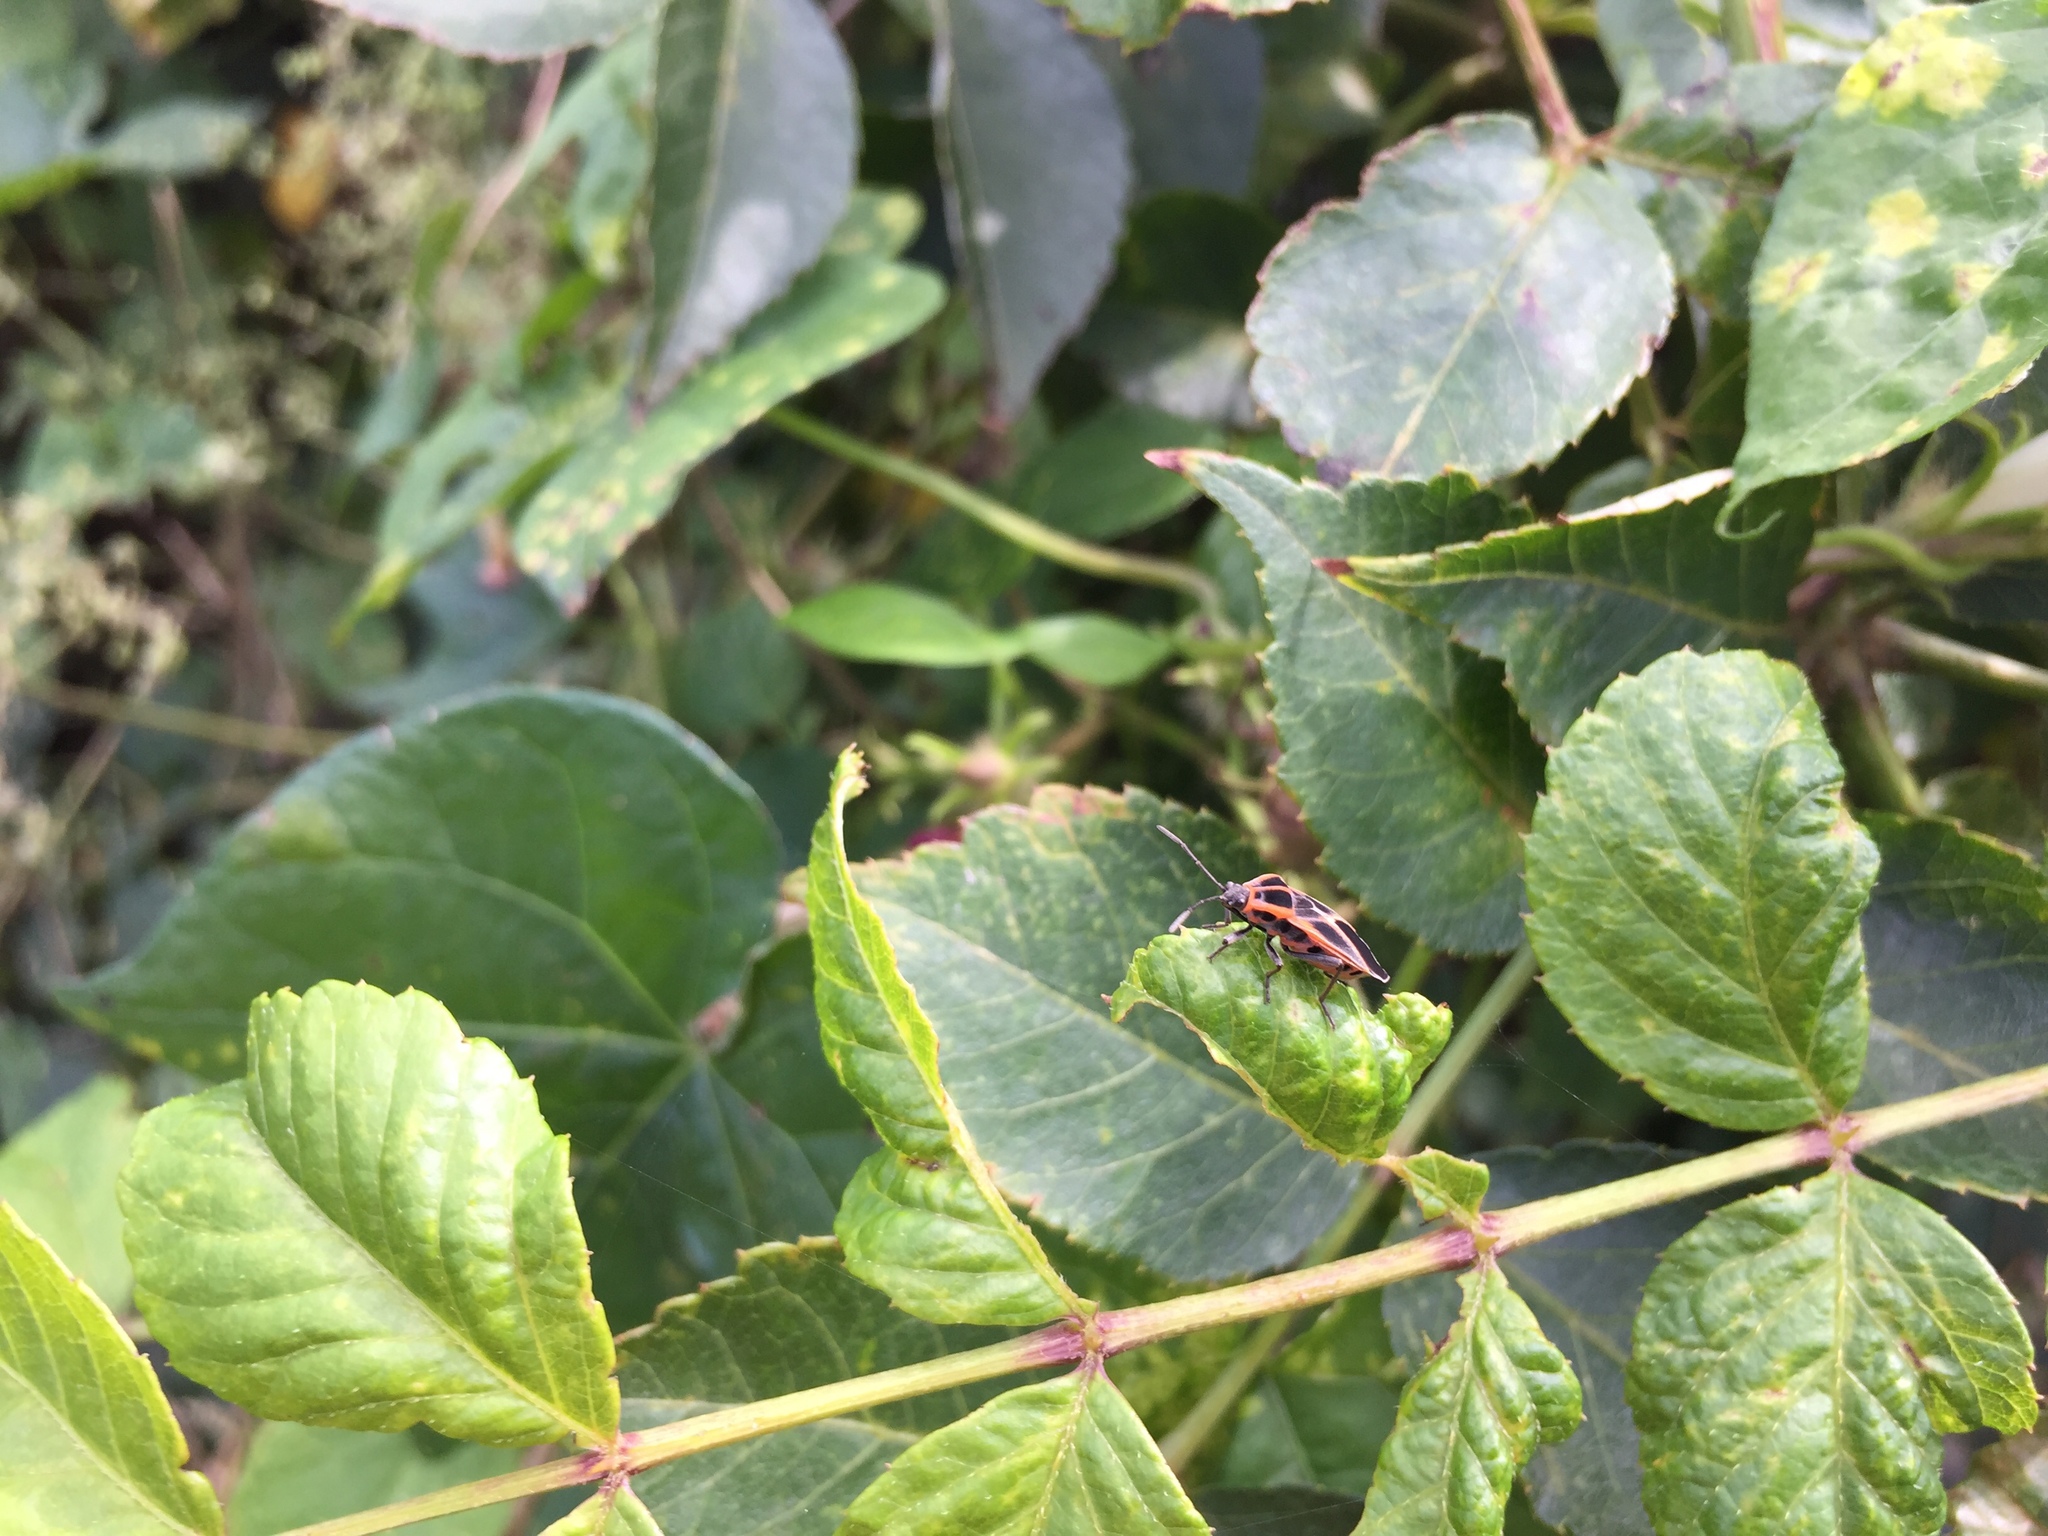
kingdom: Animalia
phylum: Arthropoda
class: Insecta
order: Hemiptera
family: Lygaeidae
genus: Tropidothorax
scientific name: Tropidothorax cruciger
